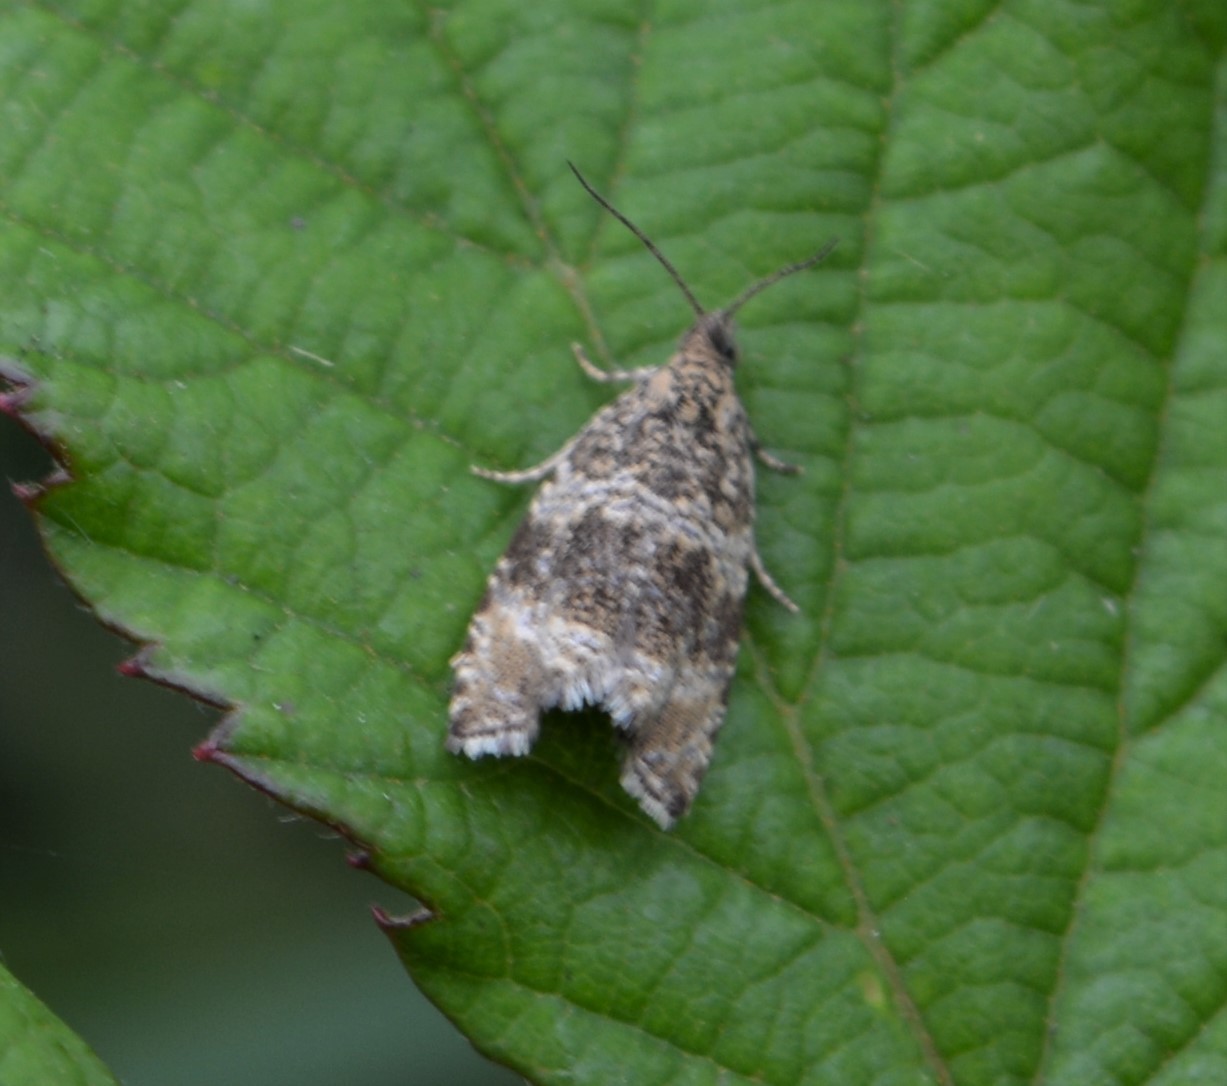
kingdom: Animalia
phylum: Arthropoda
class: Insecta
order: Lepidoptera
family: Tortricidae
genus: Syricoris
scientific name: Syricoris lacunana
